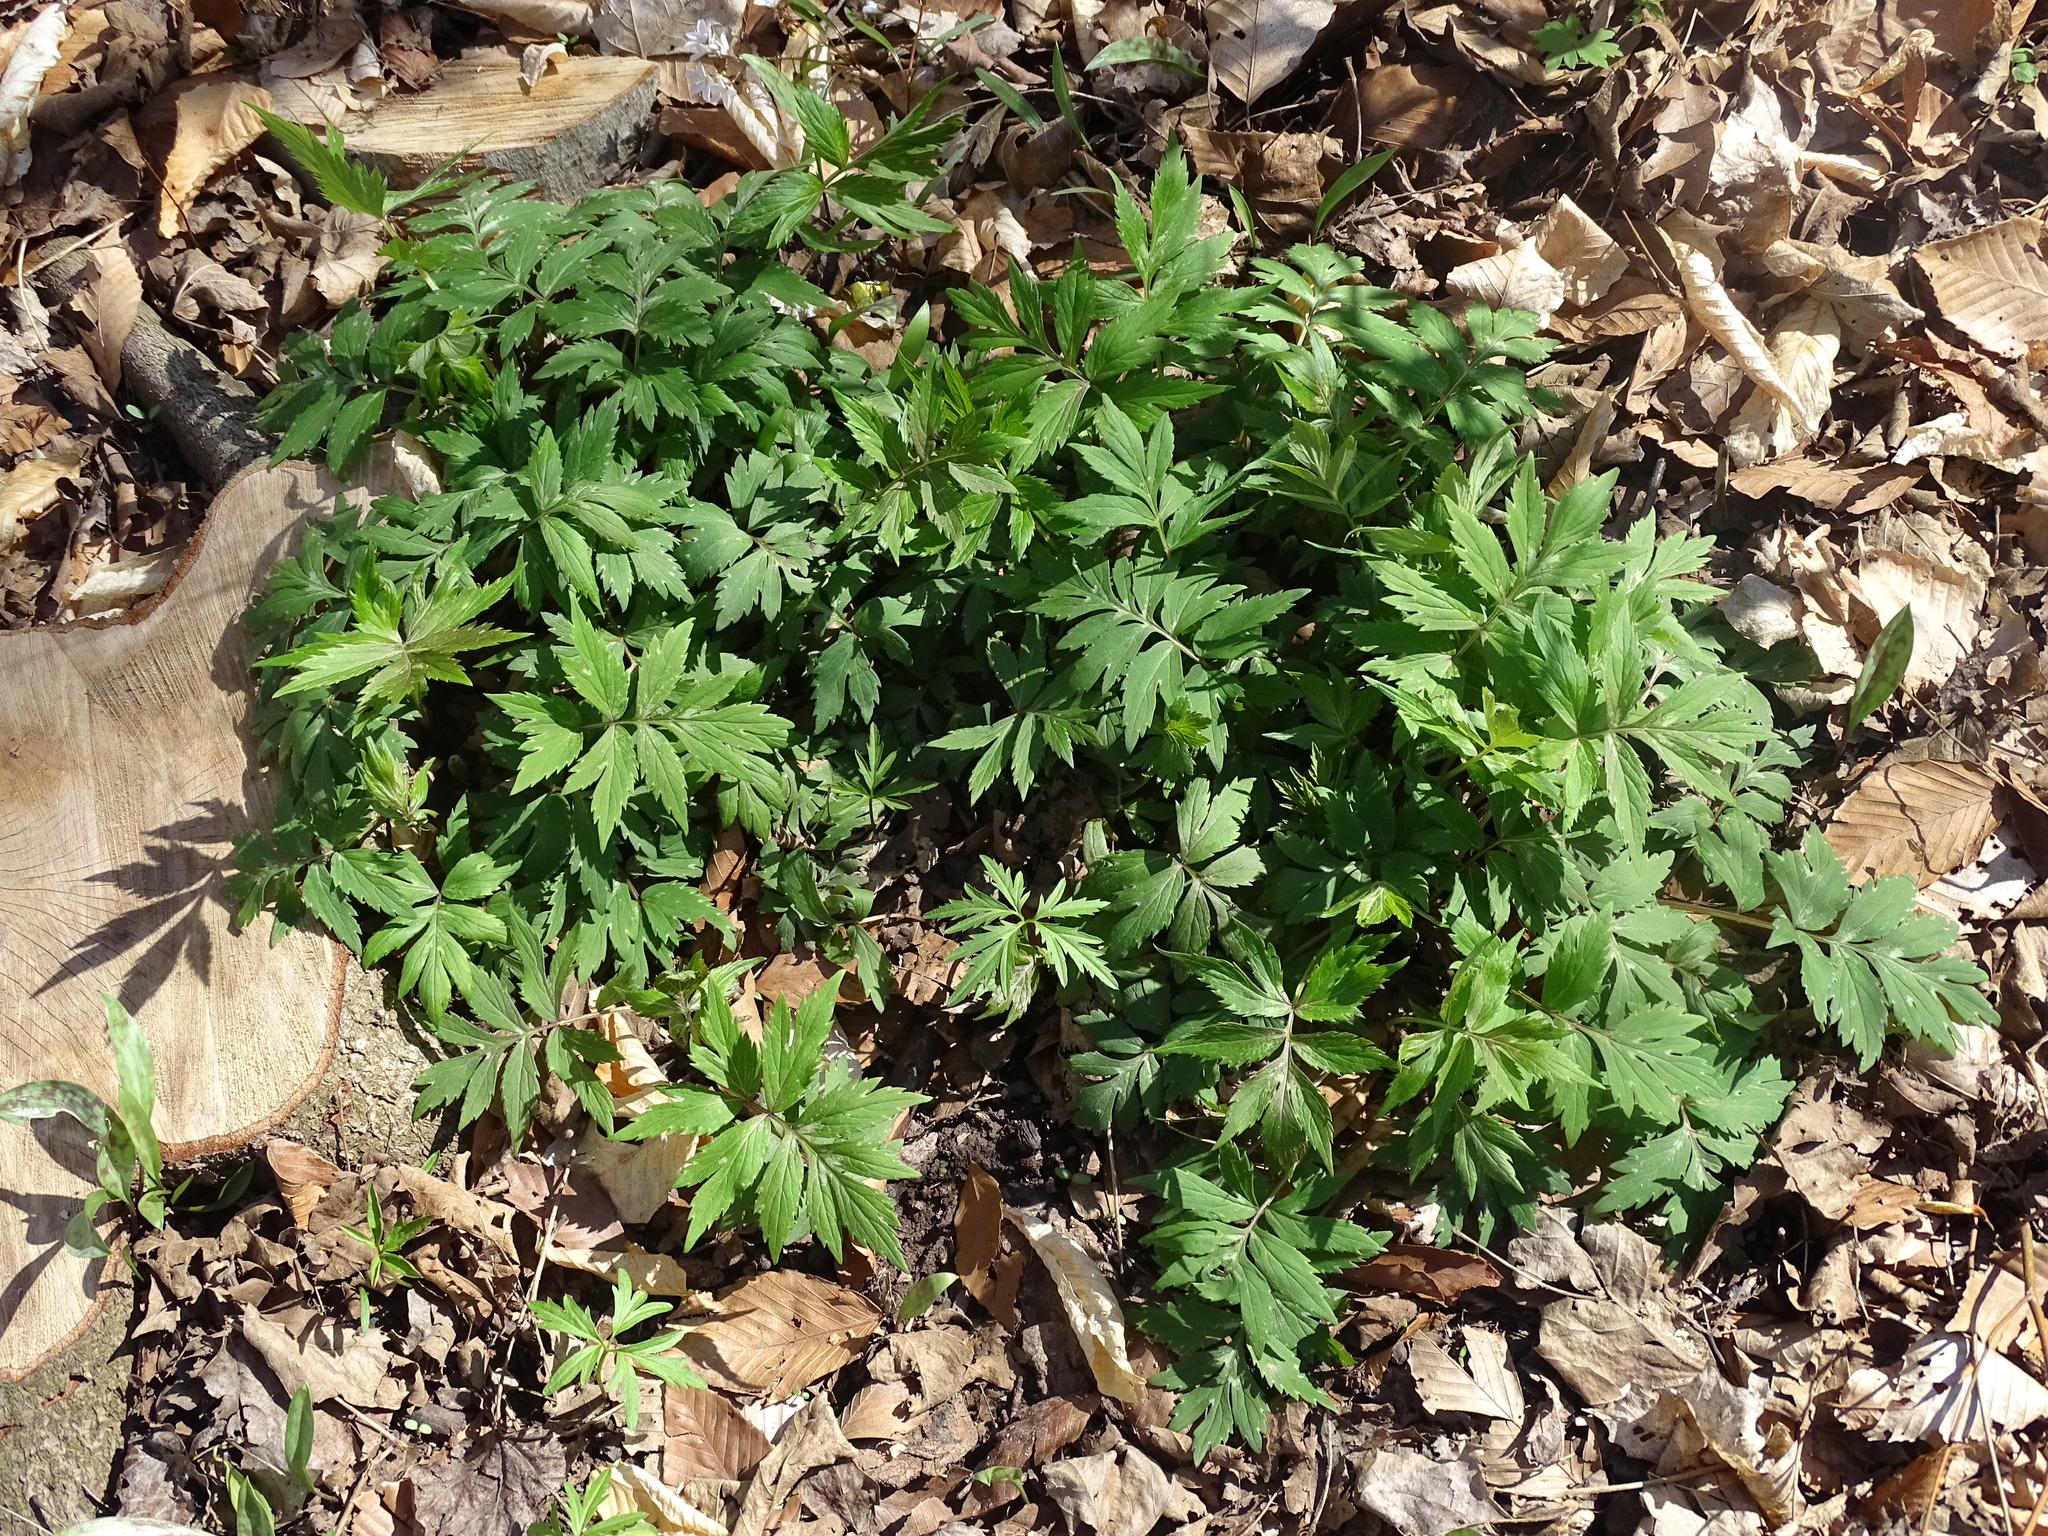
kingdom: Plantae
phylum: Tracheophyta
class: Magnoliopsida
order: Boraginales
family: Hydrophyllaceae
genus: Hydrophyllum
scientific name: Hydrophyllum virginianum
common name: Virginia waterleaf
